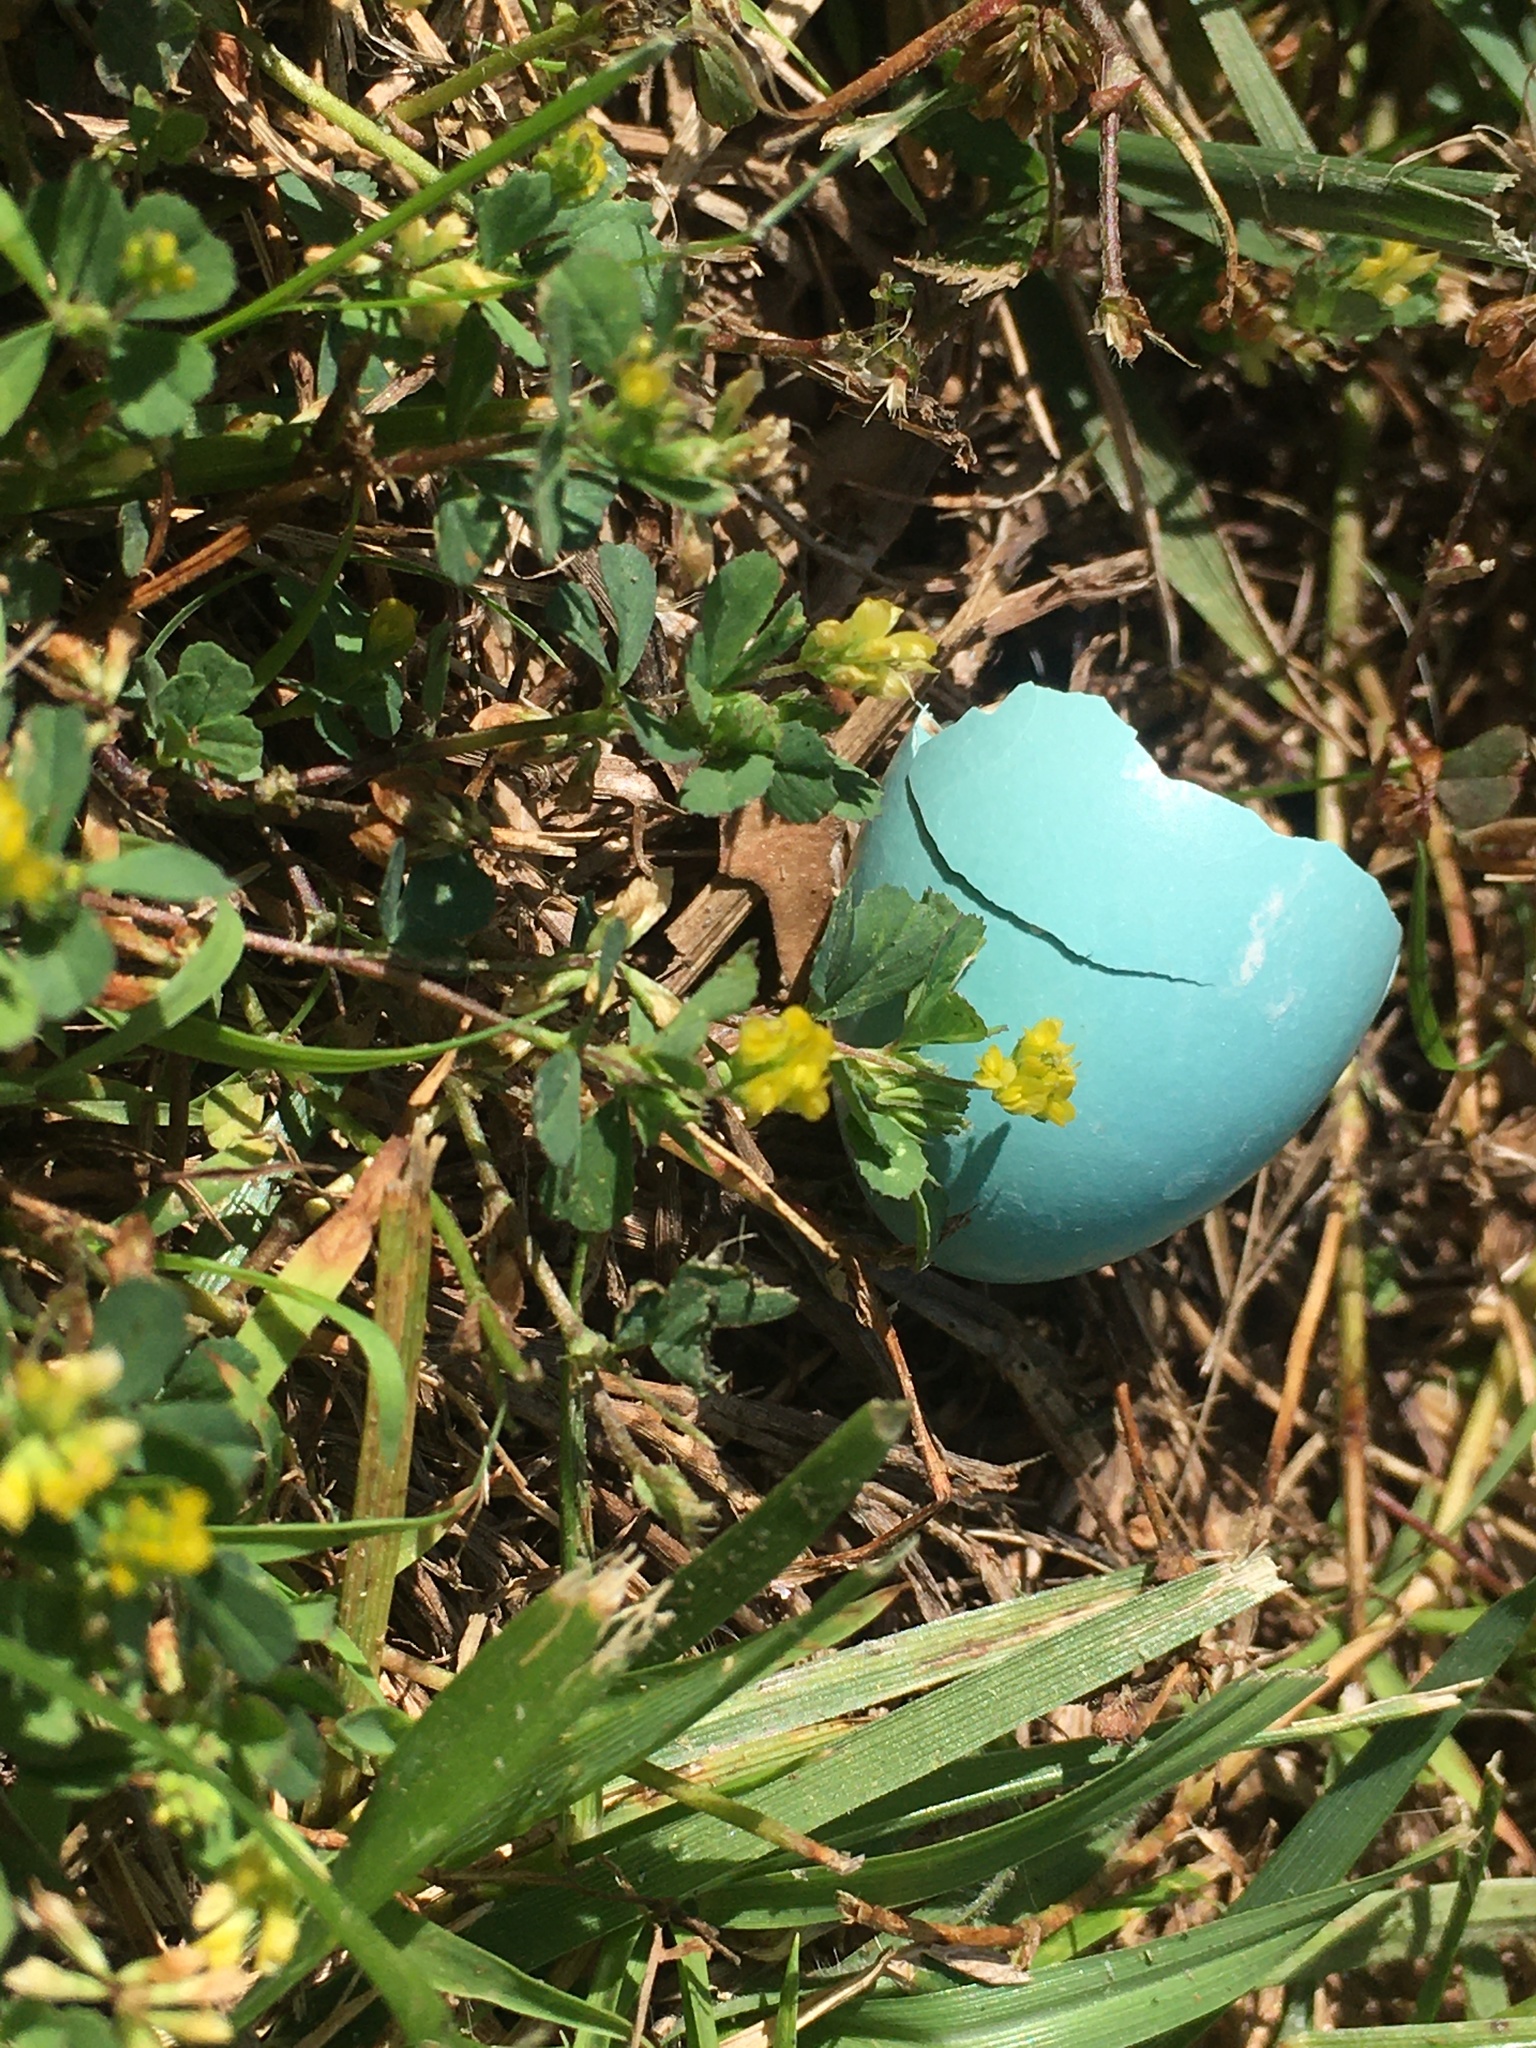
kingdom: Animalia
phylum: Chordata
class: Aves
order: Passeriformes
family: Turdidae
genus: Turdus
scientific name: Turdus migratorius
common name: American robin
